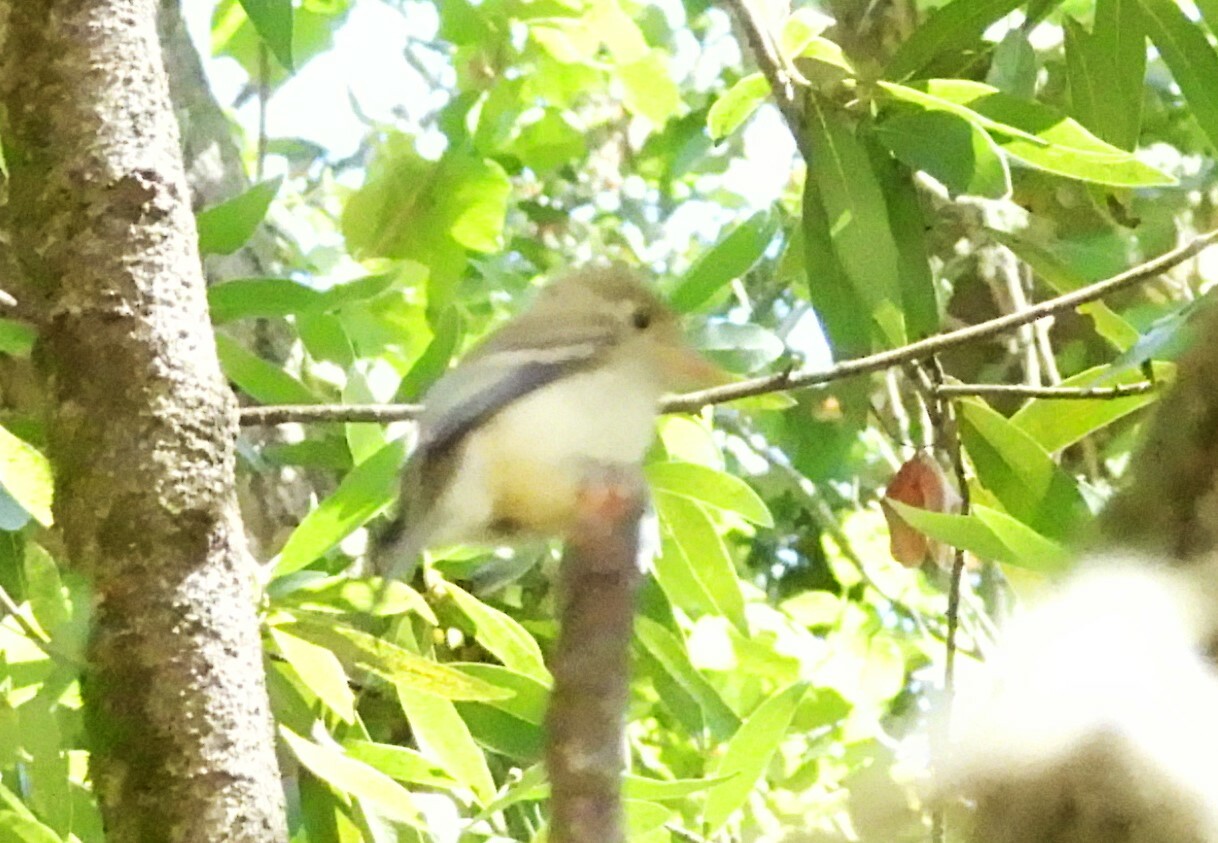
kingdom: Animalia
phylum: Chordata
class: Aves
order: Passeriformes
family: Tyrannidae
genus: Empidonax
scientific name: Empidonax difficilis
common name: Pacific-slope flycatcher
